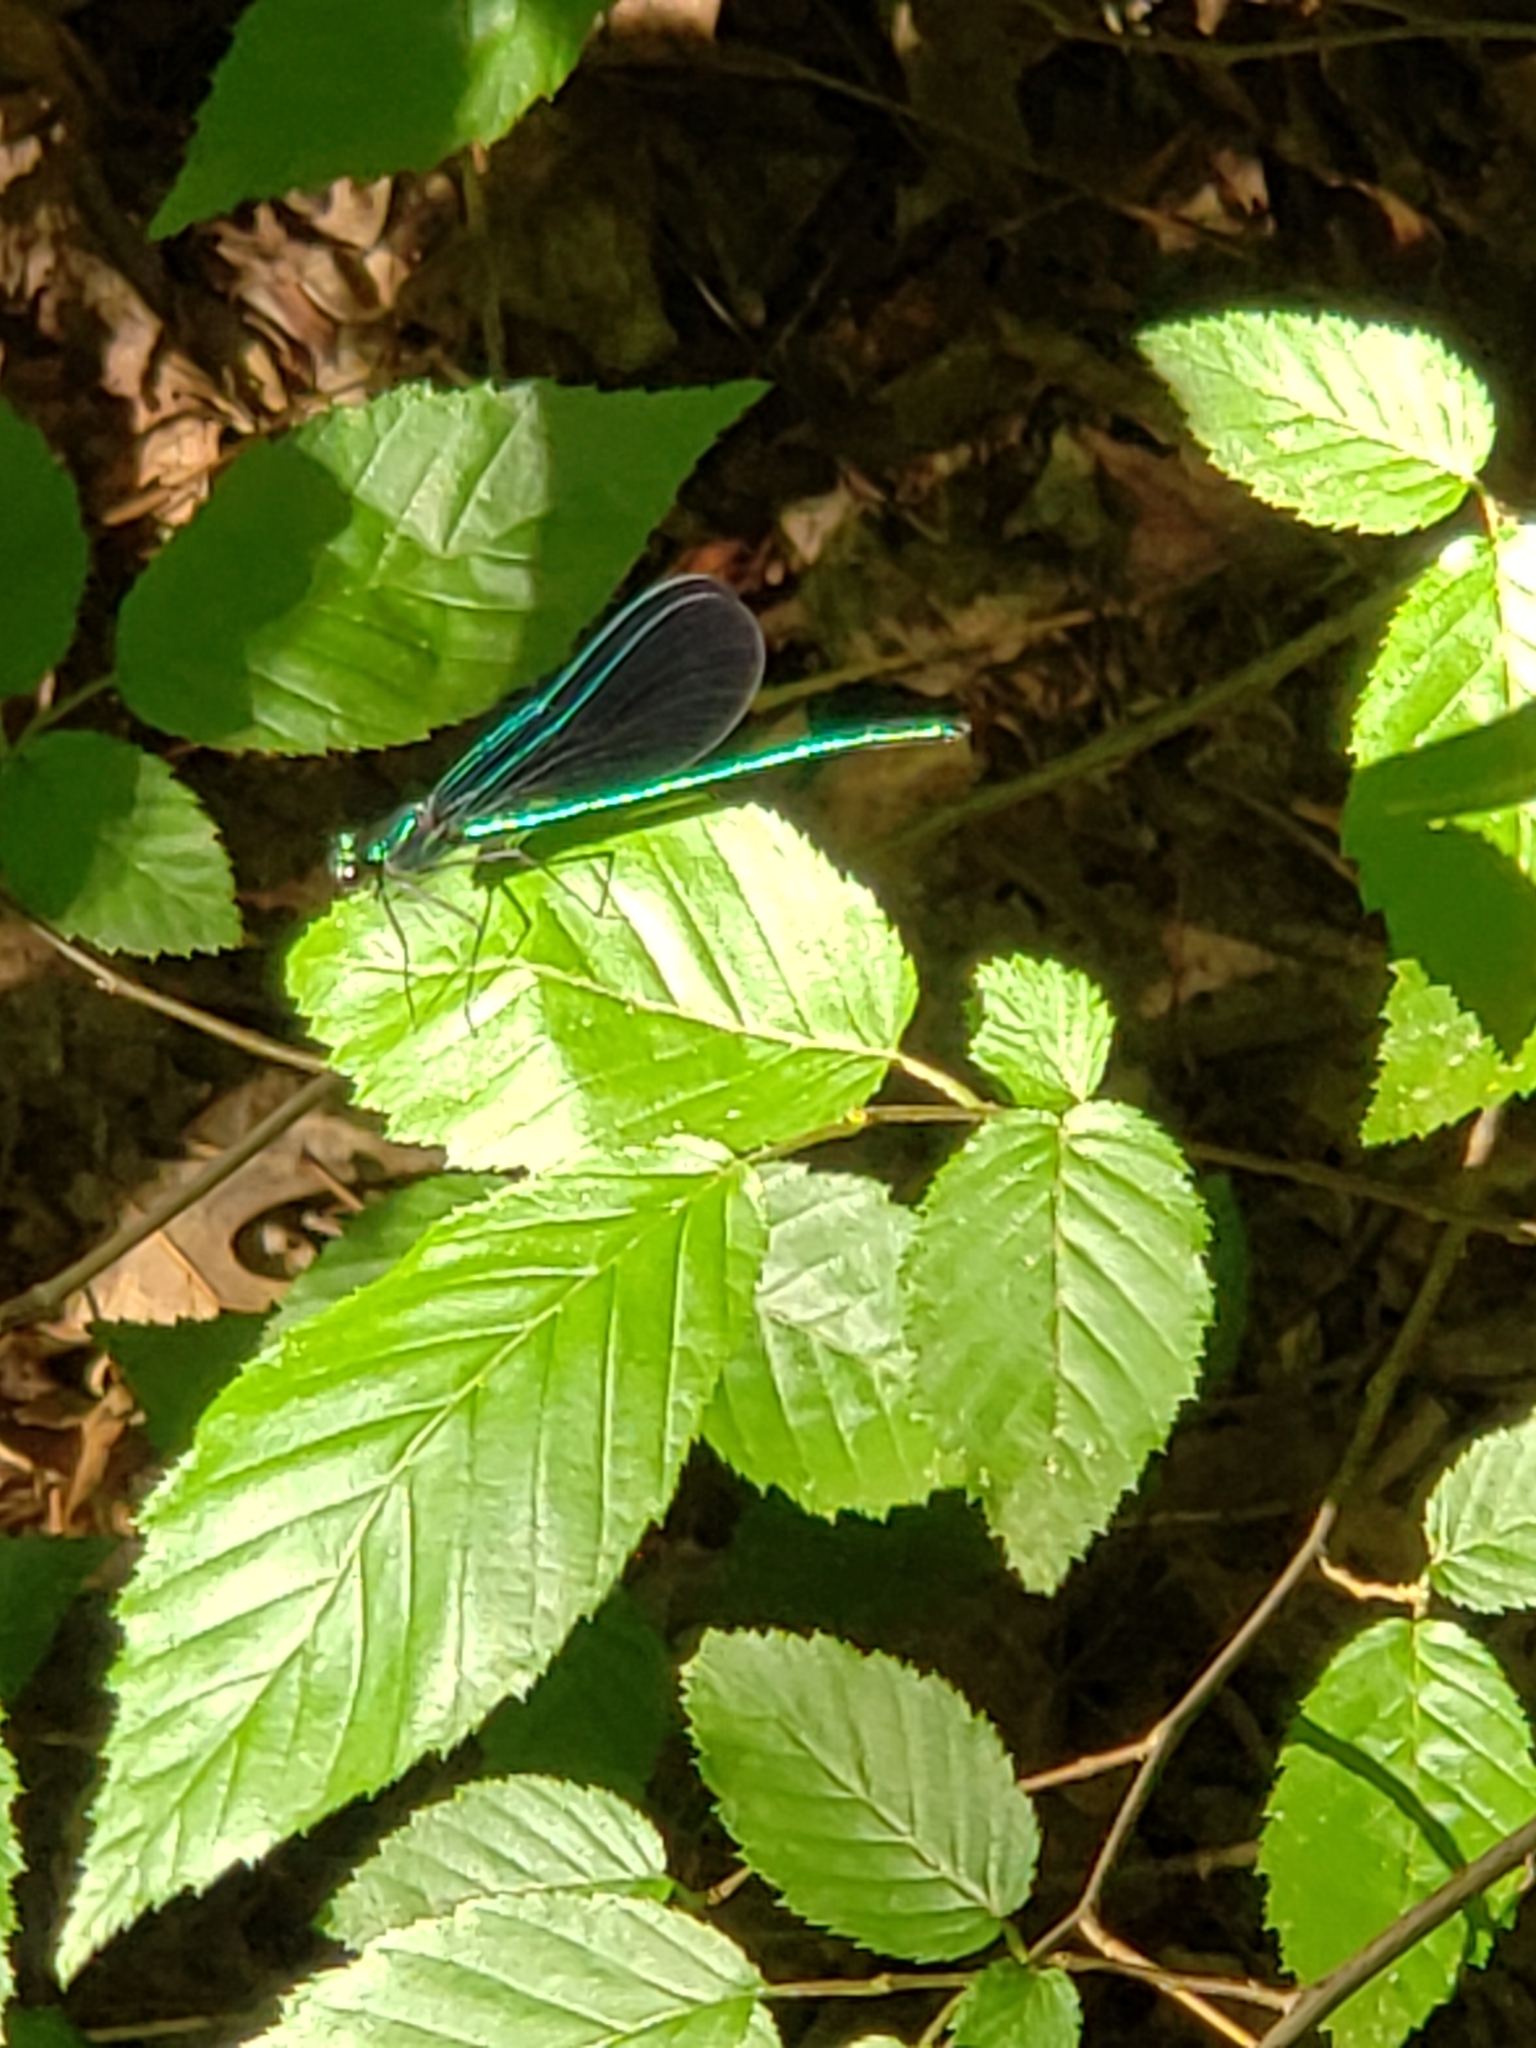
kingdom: Animalia
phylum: Arthropoda
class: Insecta
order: Odonata
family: Calopterygidae
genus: Calopteryx
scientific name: Calopteryx maculata
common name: Ebony jewelwing
